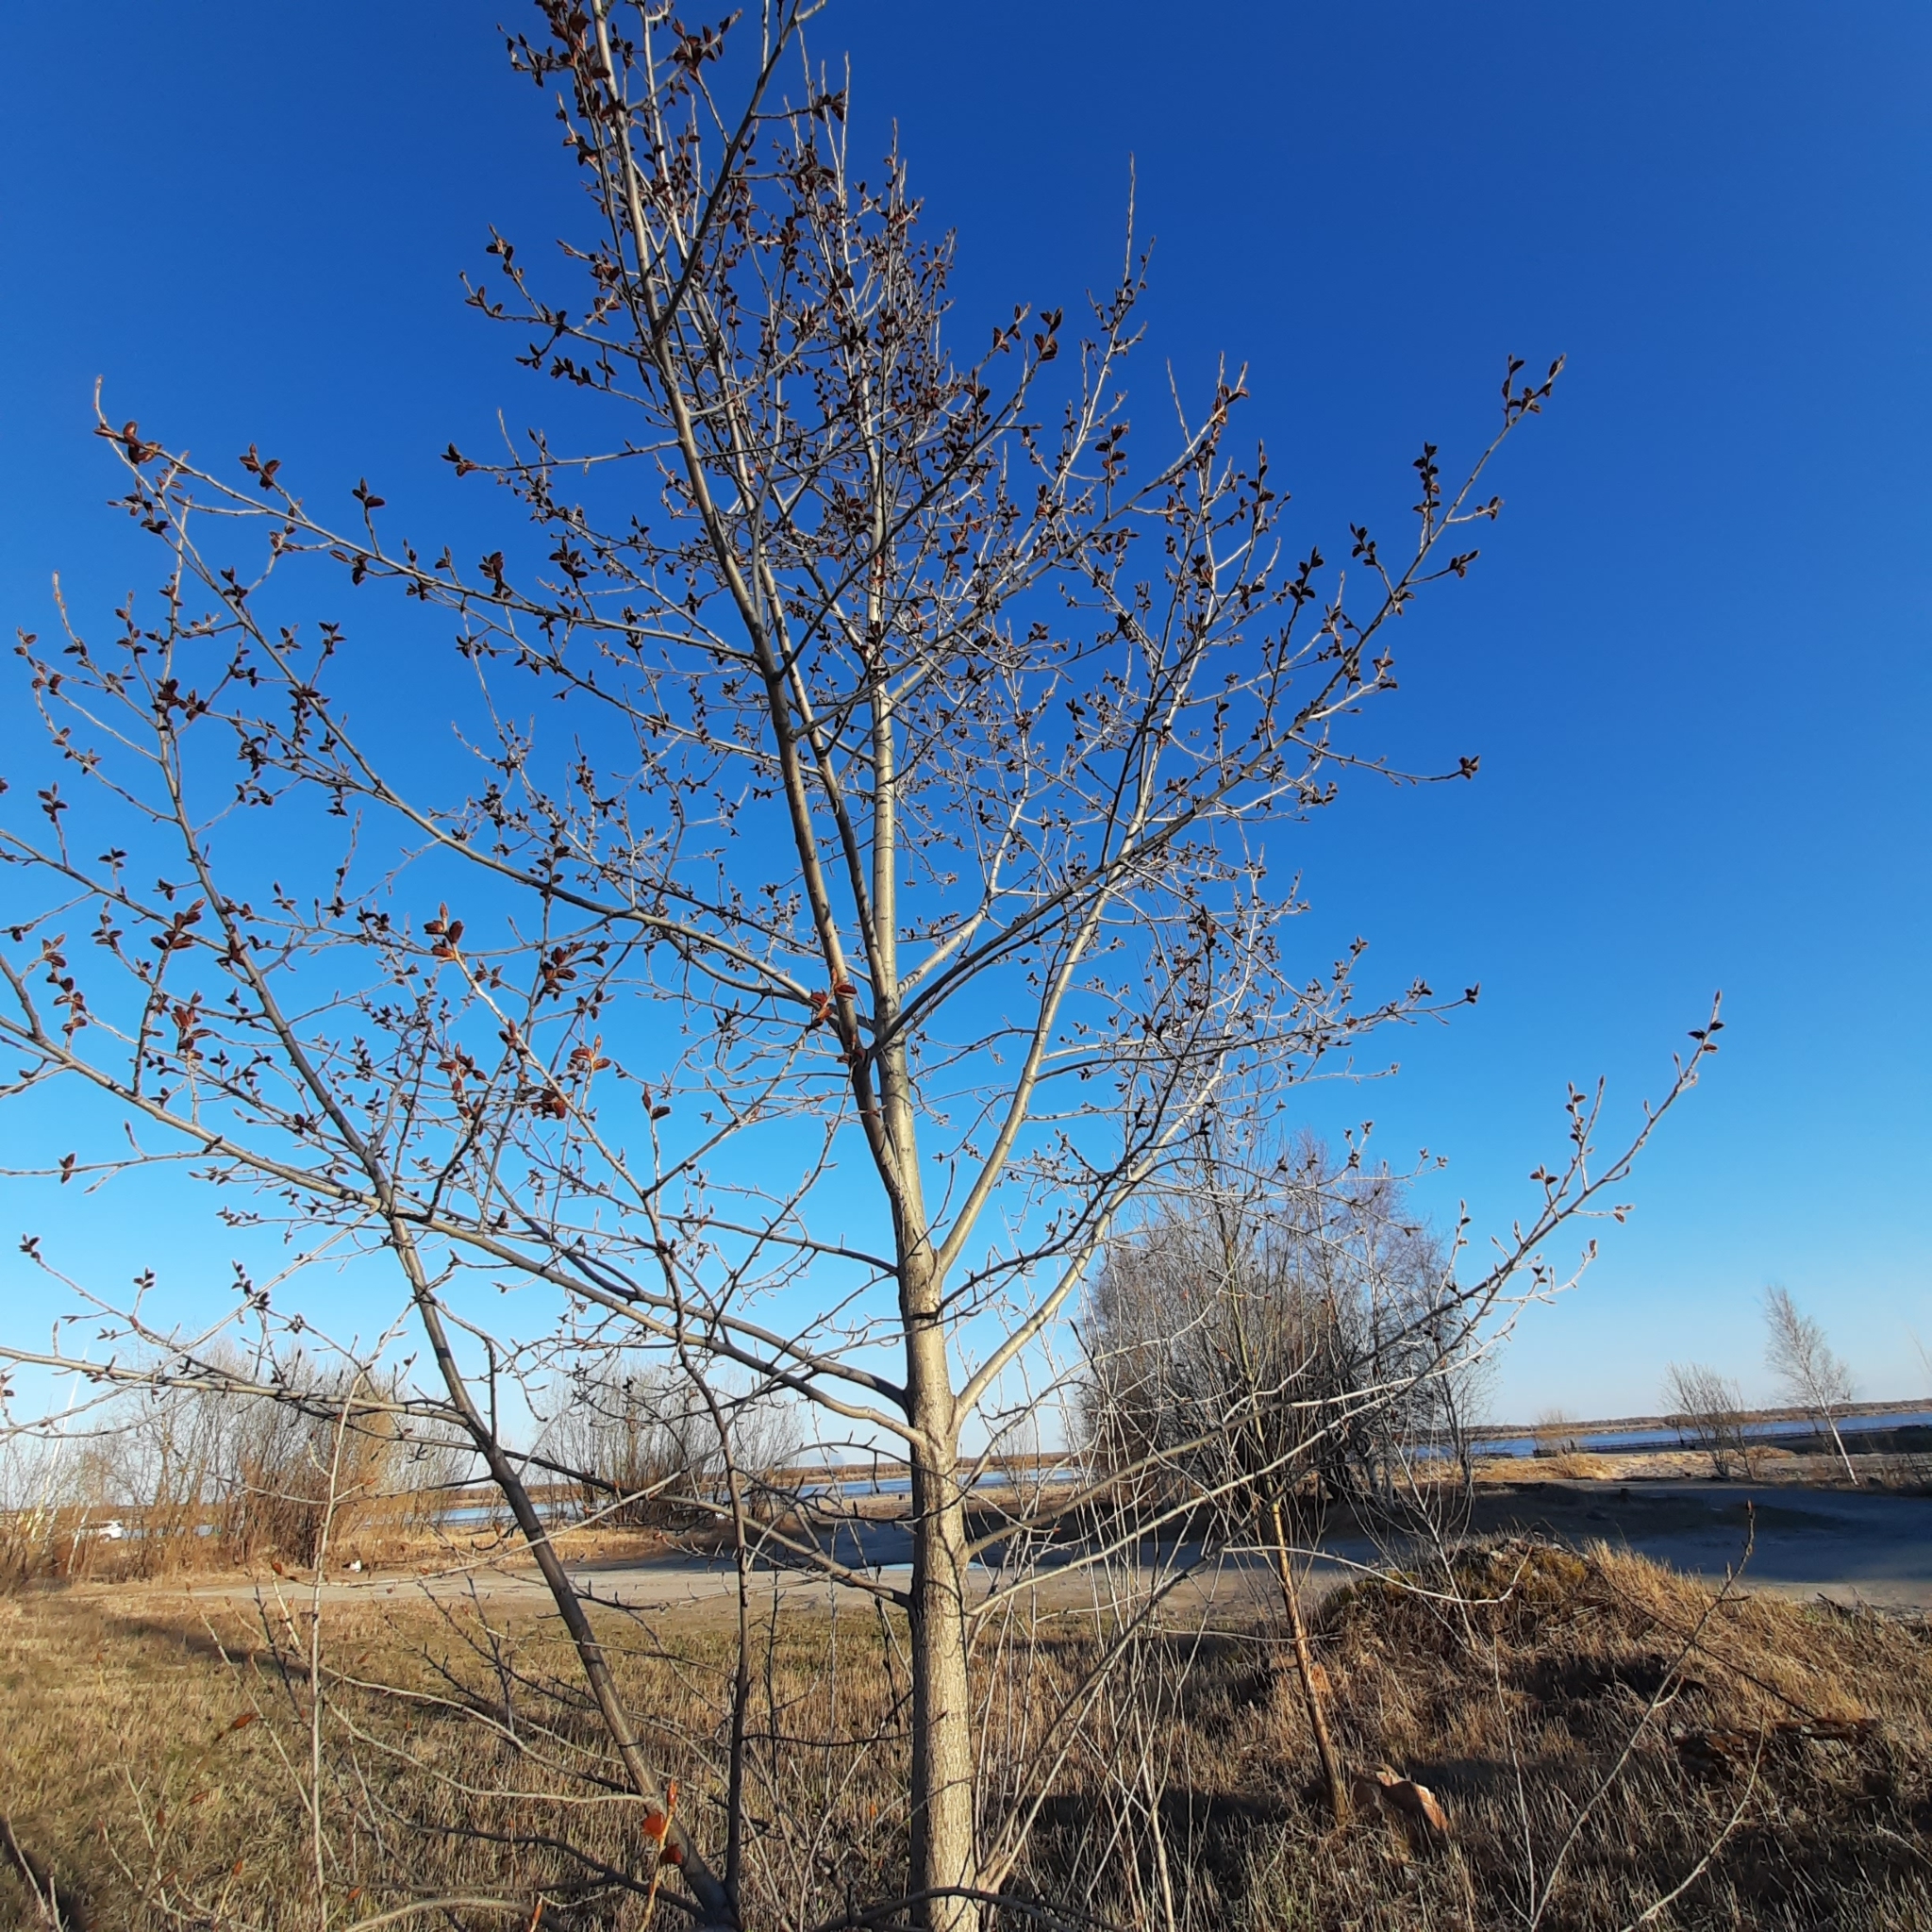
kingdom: Plantae
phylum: Tracheophyta
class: Magnoliopsida
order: Malpighiales
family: Salicaceae
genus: Populus
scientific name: Populus tremula
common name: European aspen
